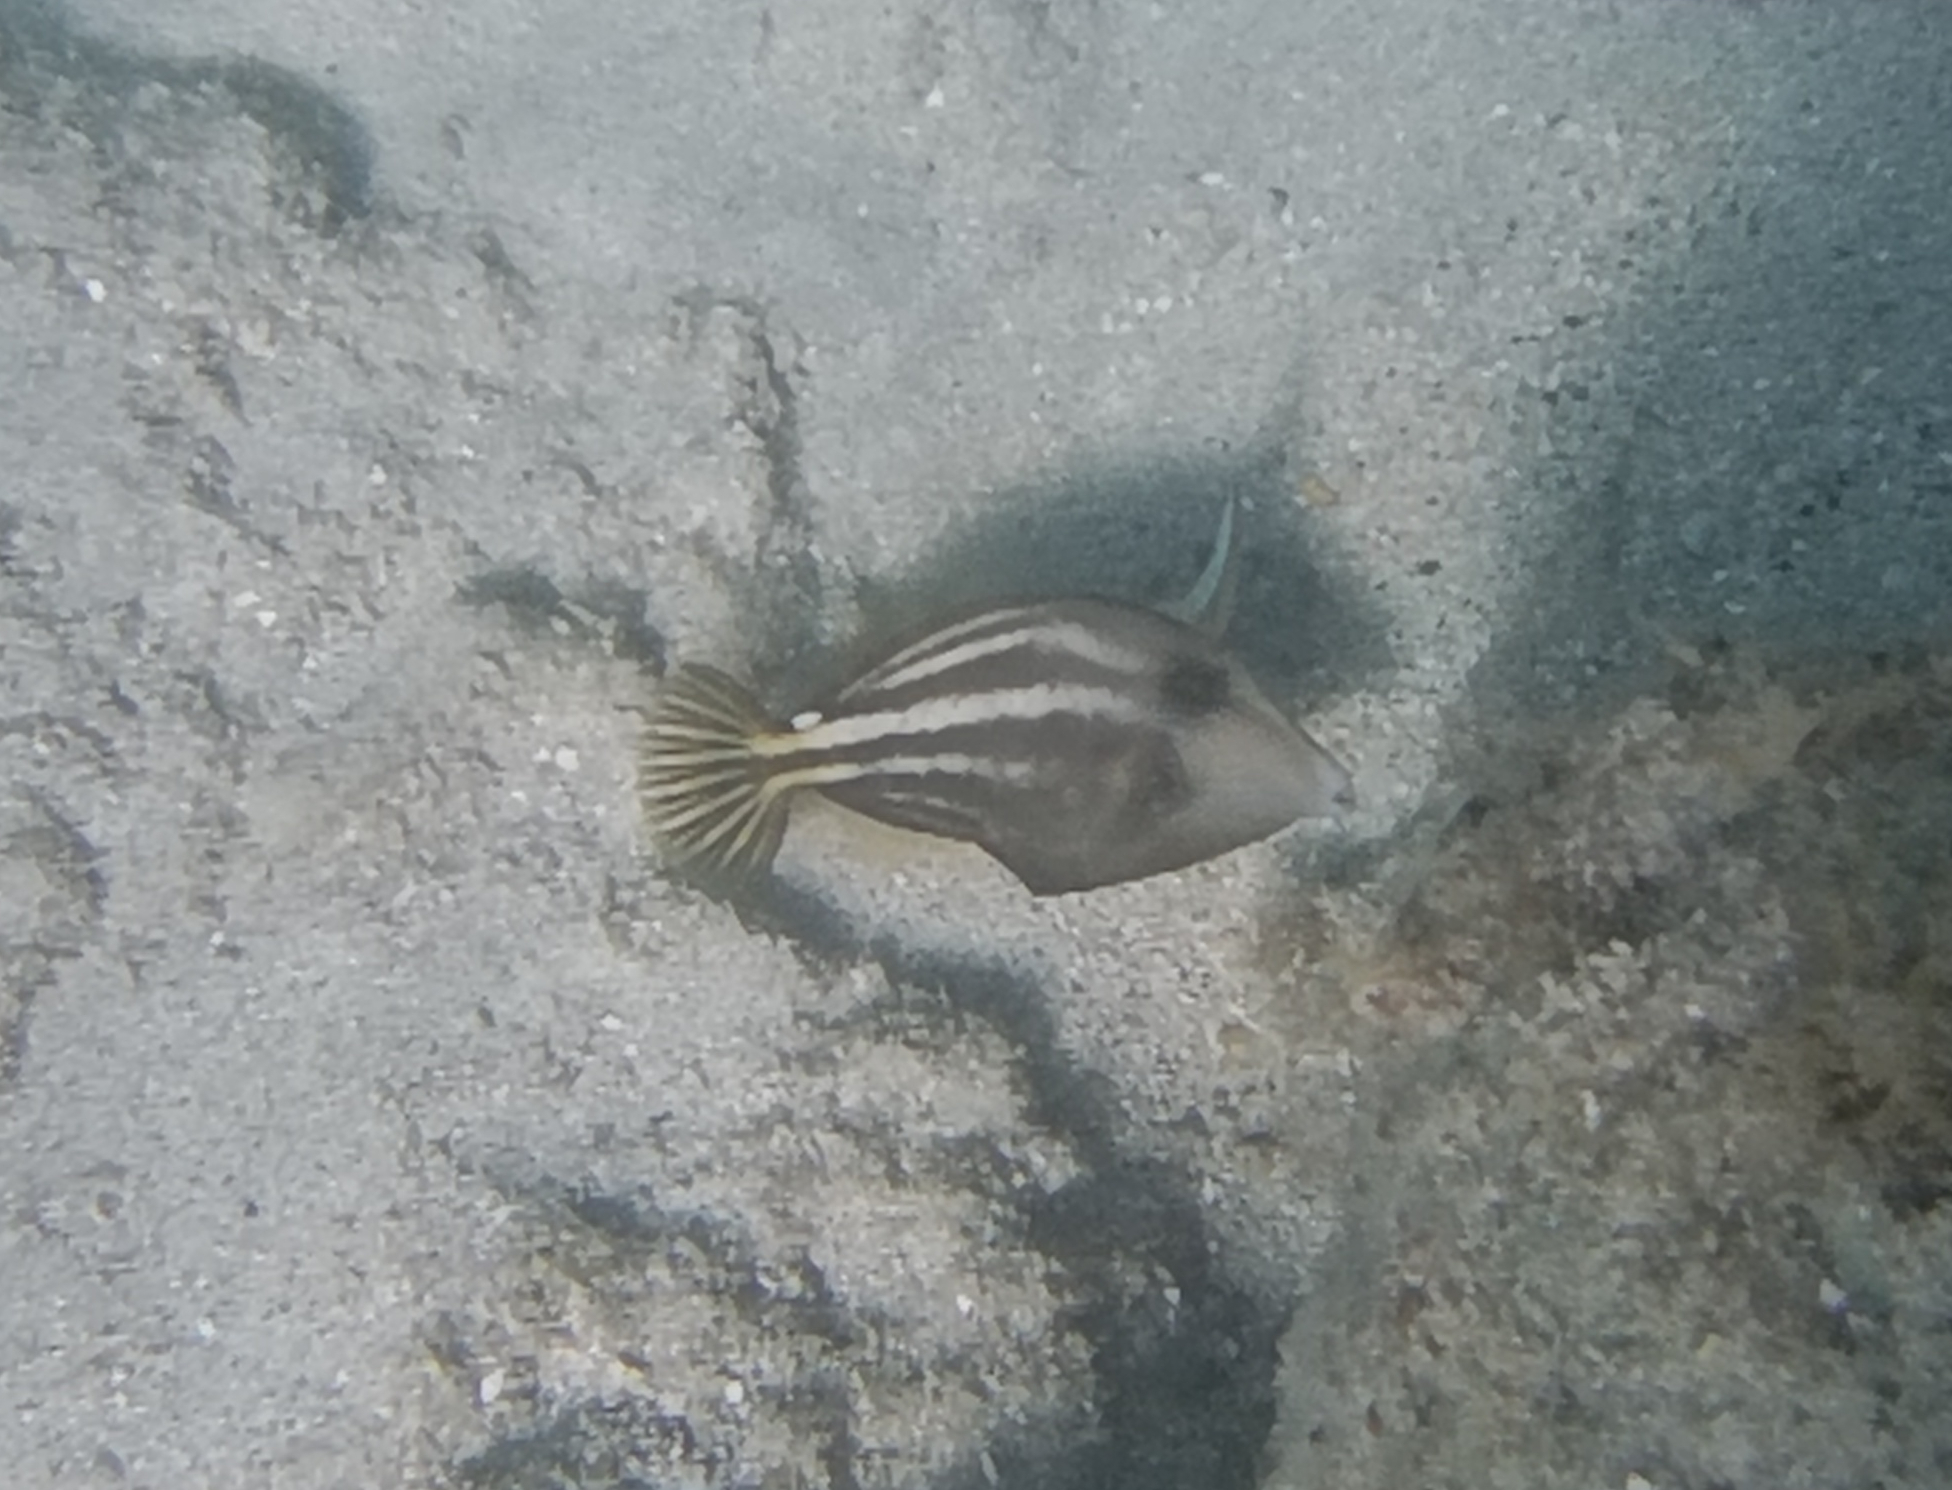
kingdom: Animalia
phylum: Chordata
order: Tetraodontiformes
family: Monacanthidae
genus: Cantherhines
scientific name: Cantherhines pullus
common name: Orangespotted filefish
